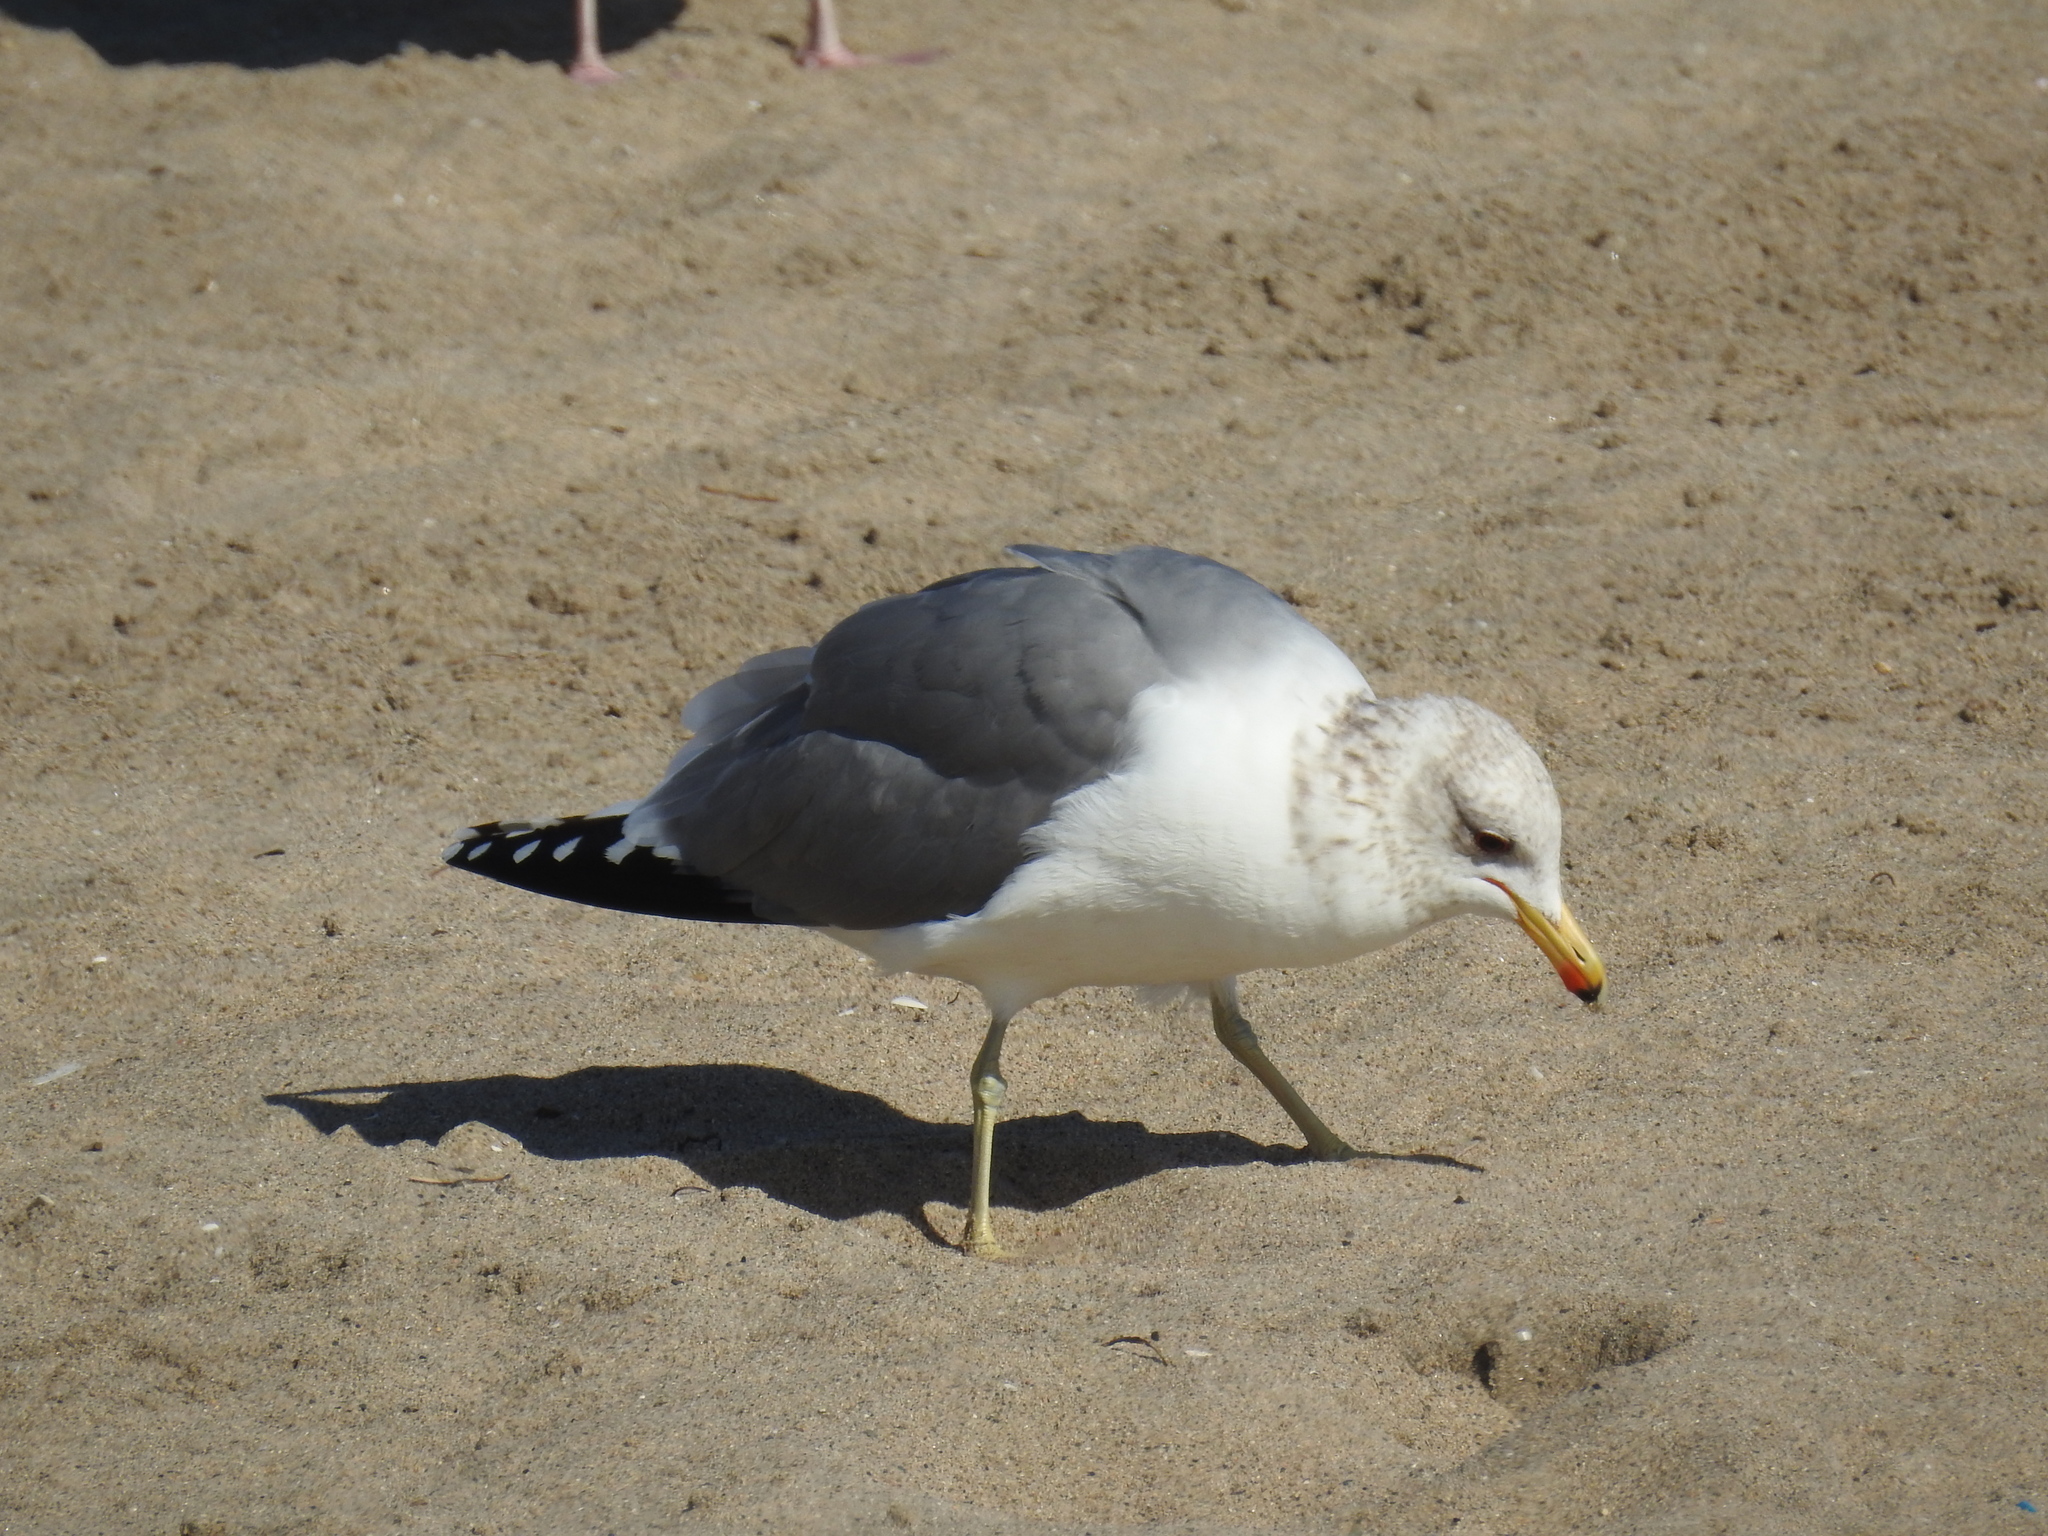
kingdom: Animalia
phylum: Chordata
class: Aves
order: Charadriiformes
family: Laridae
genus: Larus
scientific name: Larus californicus
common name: California gull
